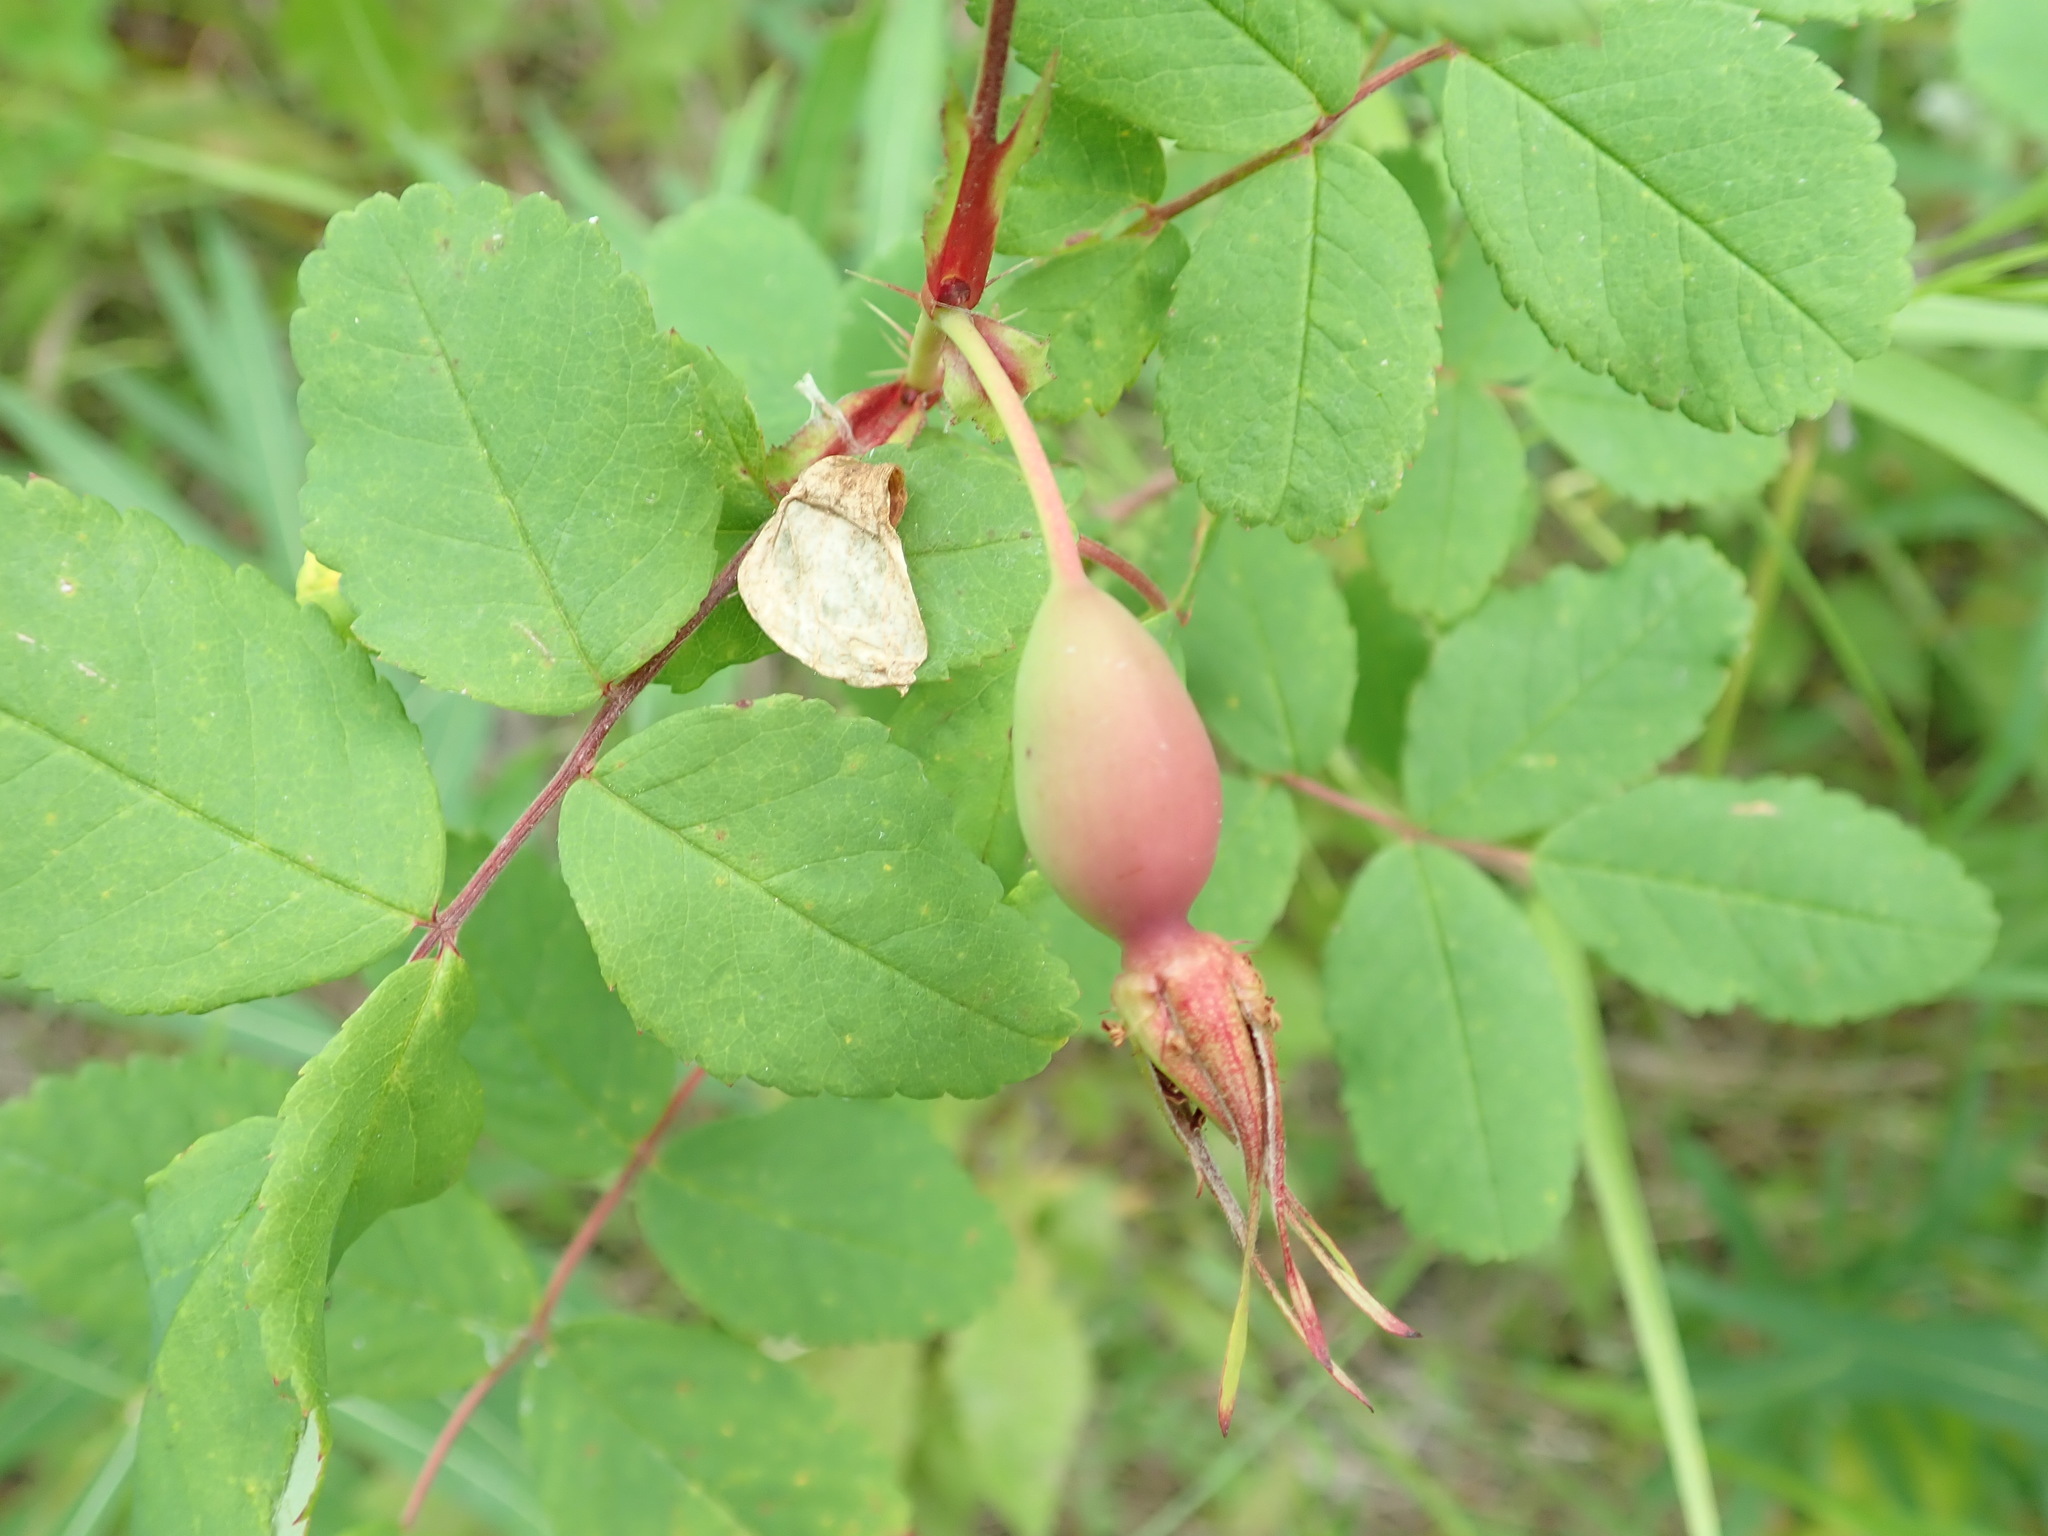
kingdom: Plantae
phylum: Tracheophyta
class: Magnoliopsida
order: Rosales
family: Rosaceae
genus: Rosa
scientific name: Rosa acicularis
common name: Prickly rose
